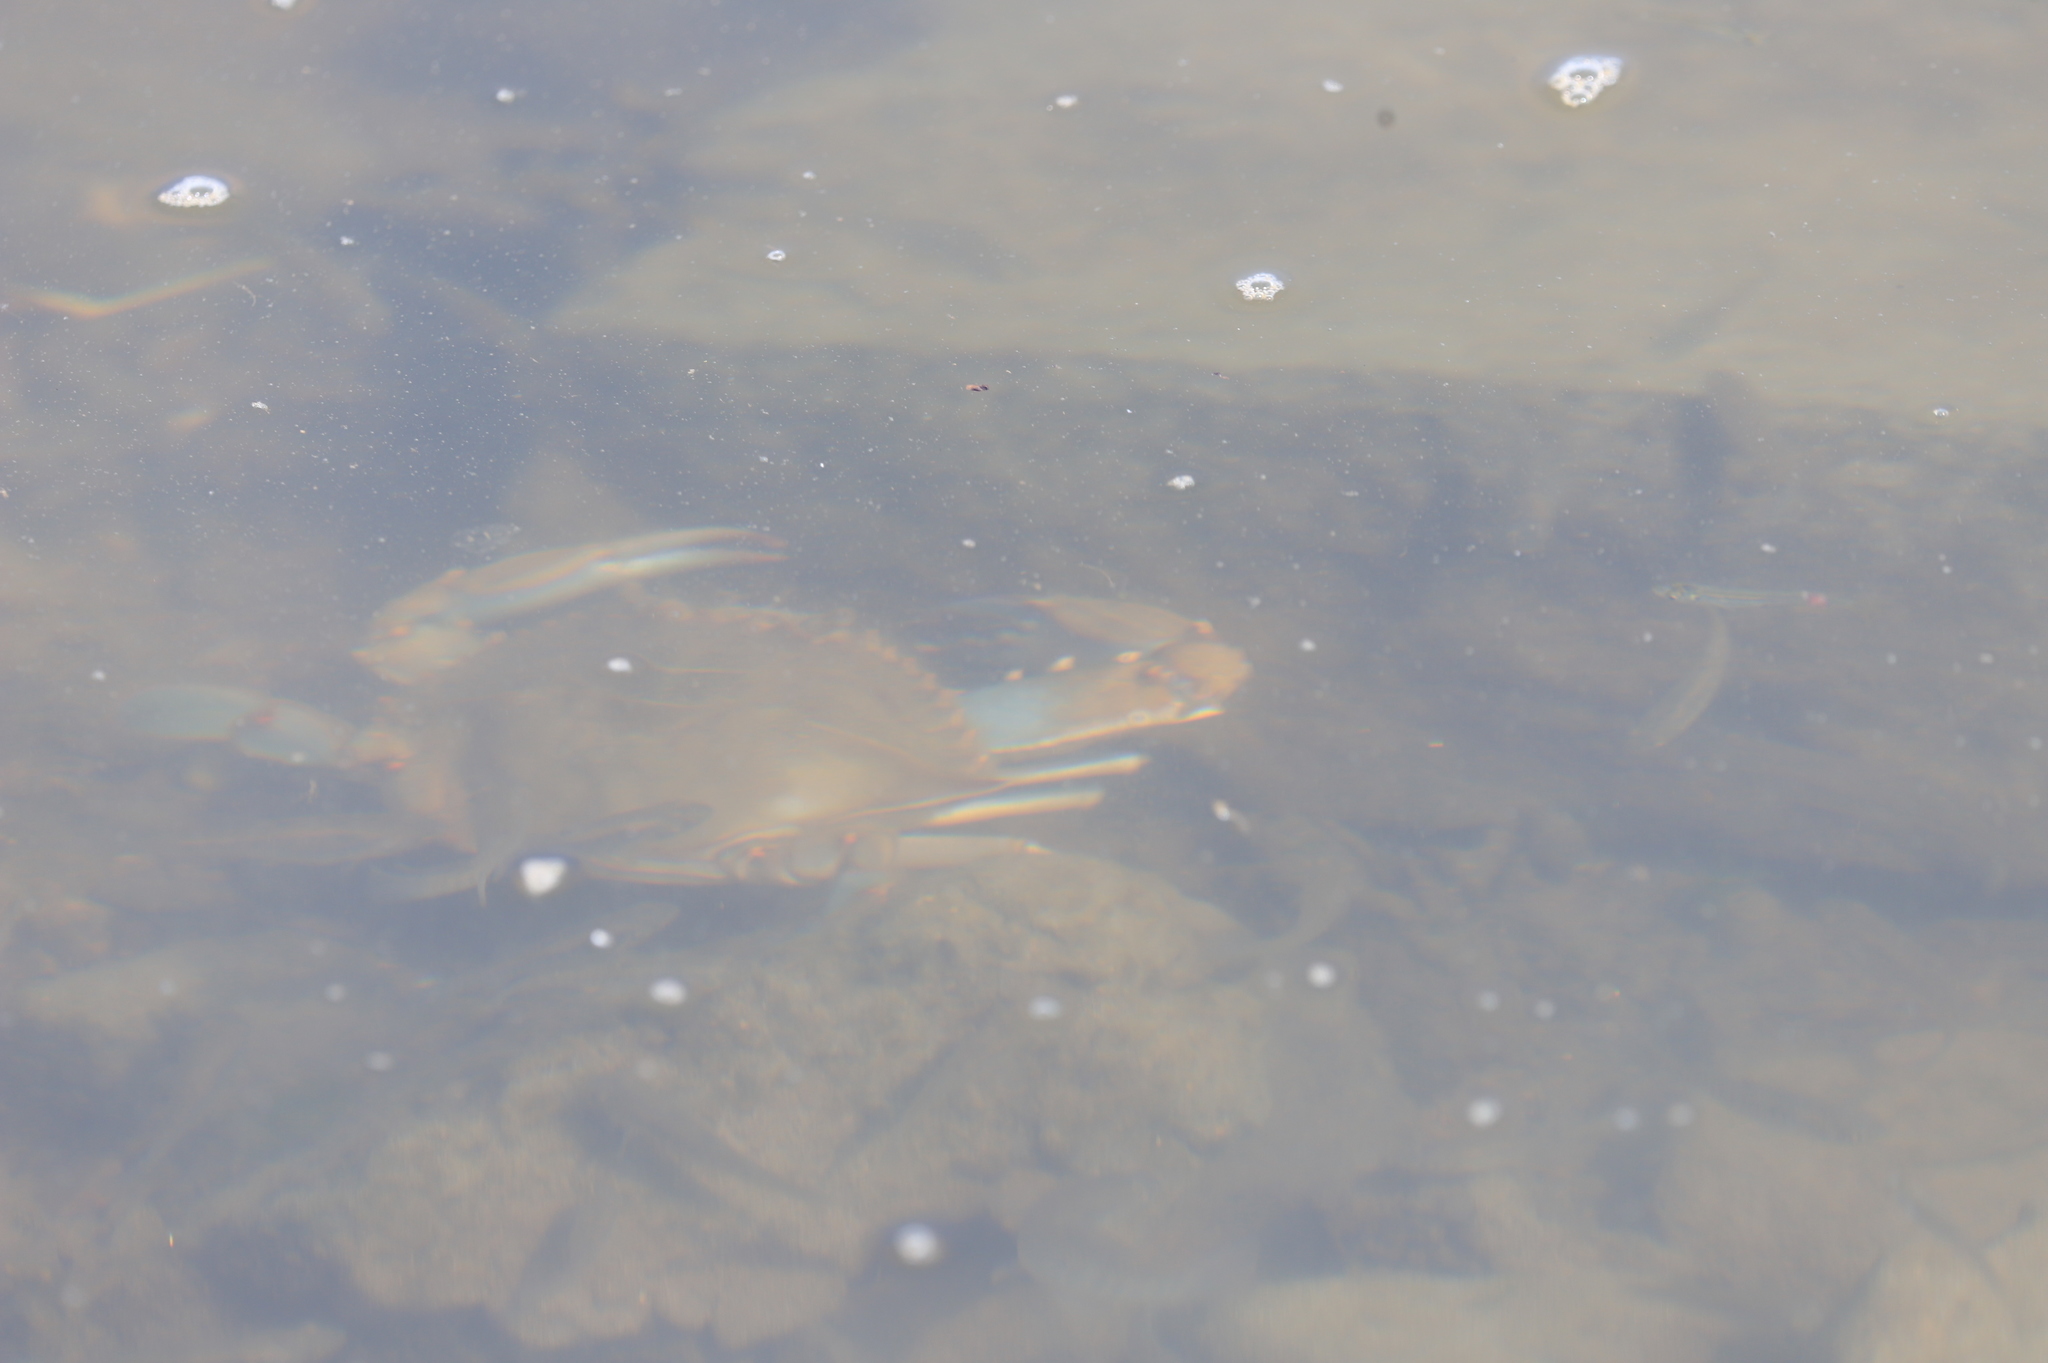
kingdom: Animalia
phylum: Arthropoda
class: Malacostraca
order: Decapoda
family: Portunidae
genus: Callinectes
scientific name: Callinectes sapidus
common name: Blue crab
